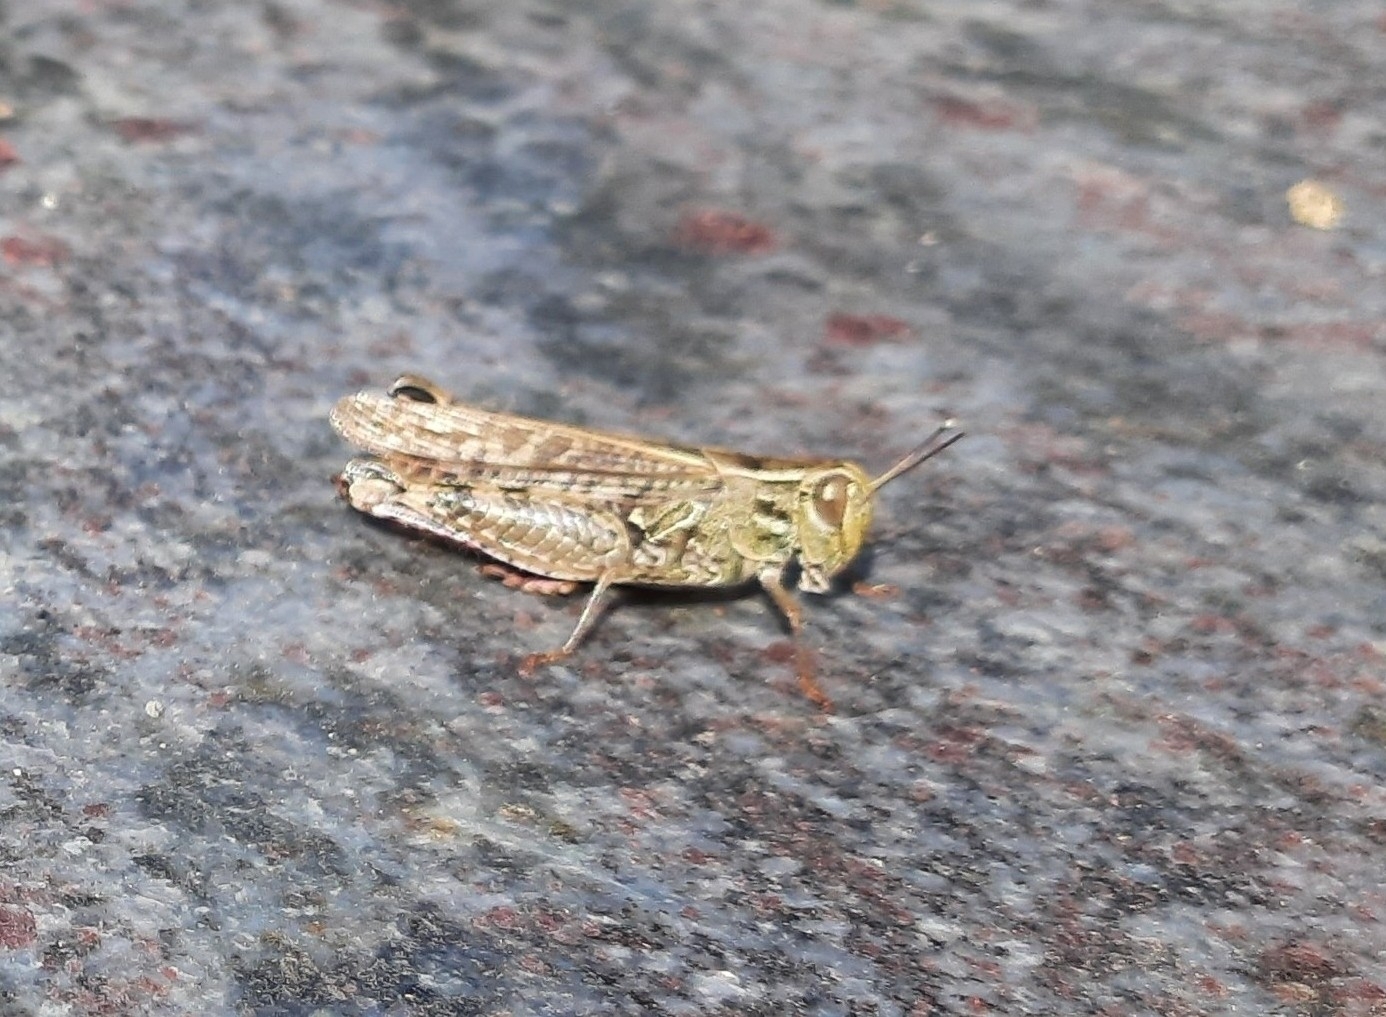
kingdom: Animalia
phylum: Arthropoda
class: Insecta
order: Orthoptera
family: Acrididae
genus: Calliptamus
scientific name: Calliptamus italicus
